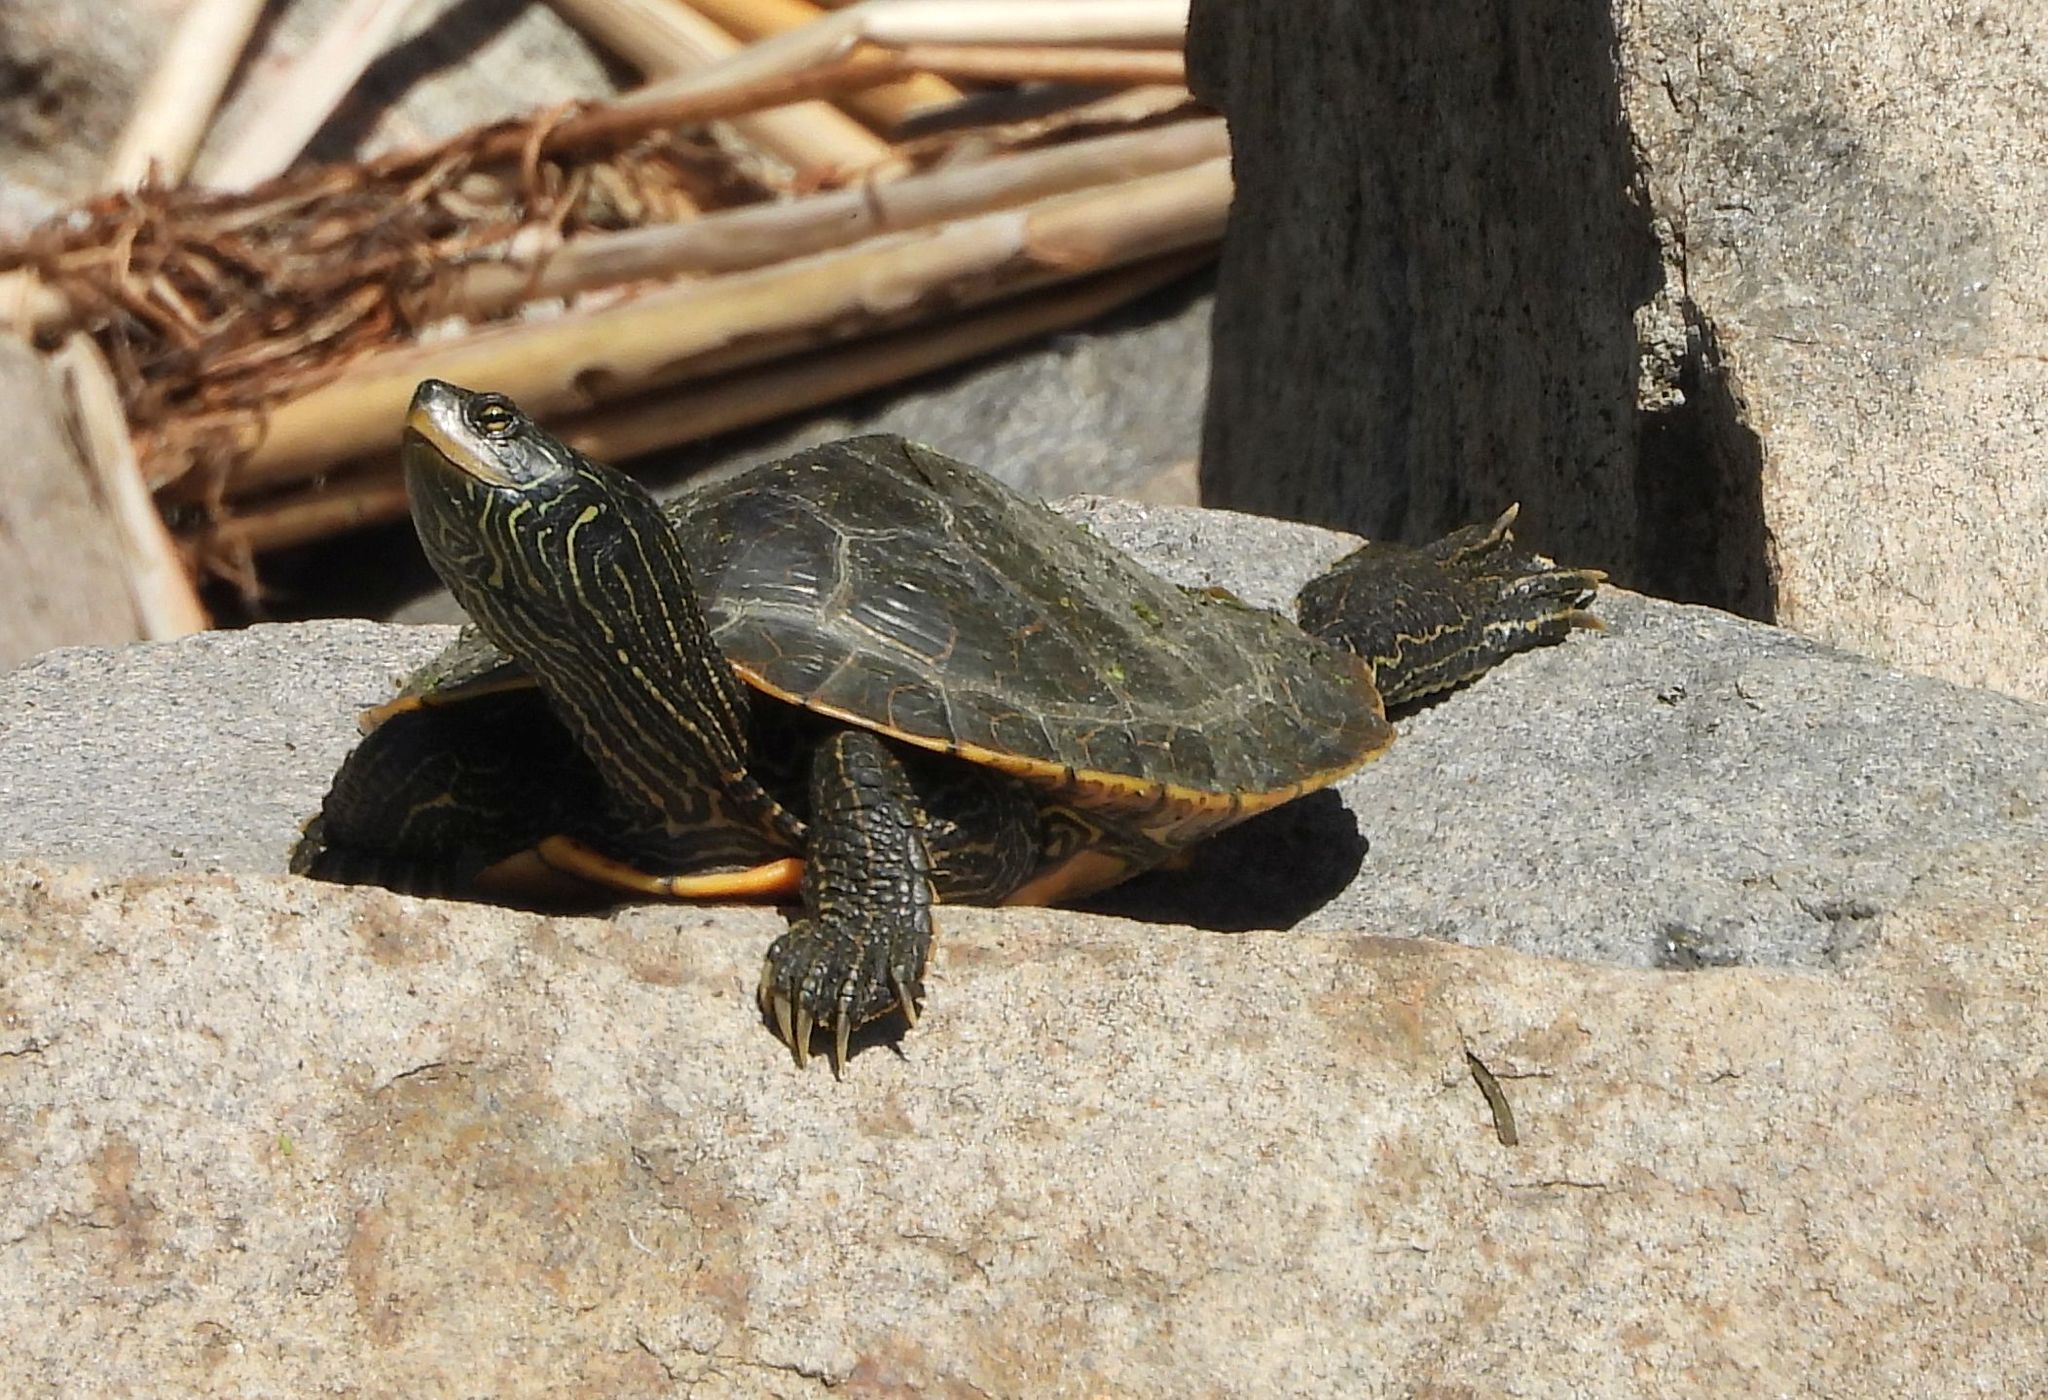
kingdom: Animalia
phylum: Chordata
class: Testudines
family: Emydidae
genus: Graptemys
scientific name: Graptemys geographica
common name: Common map turtle
